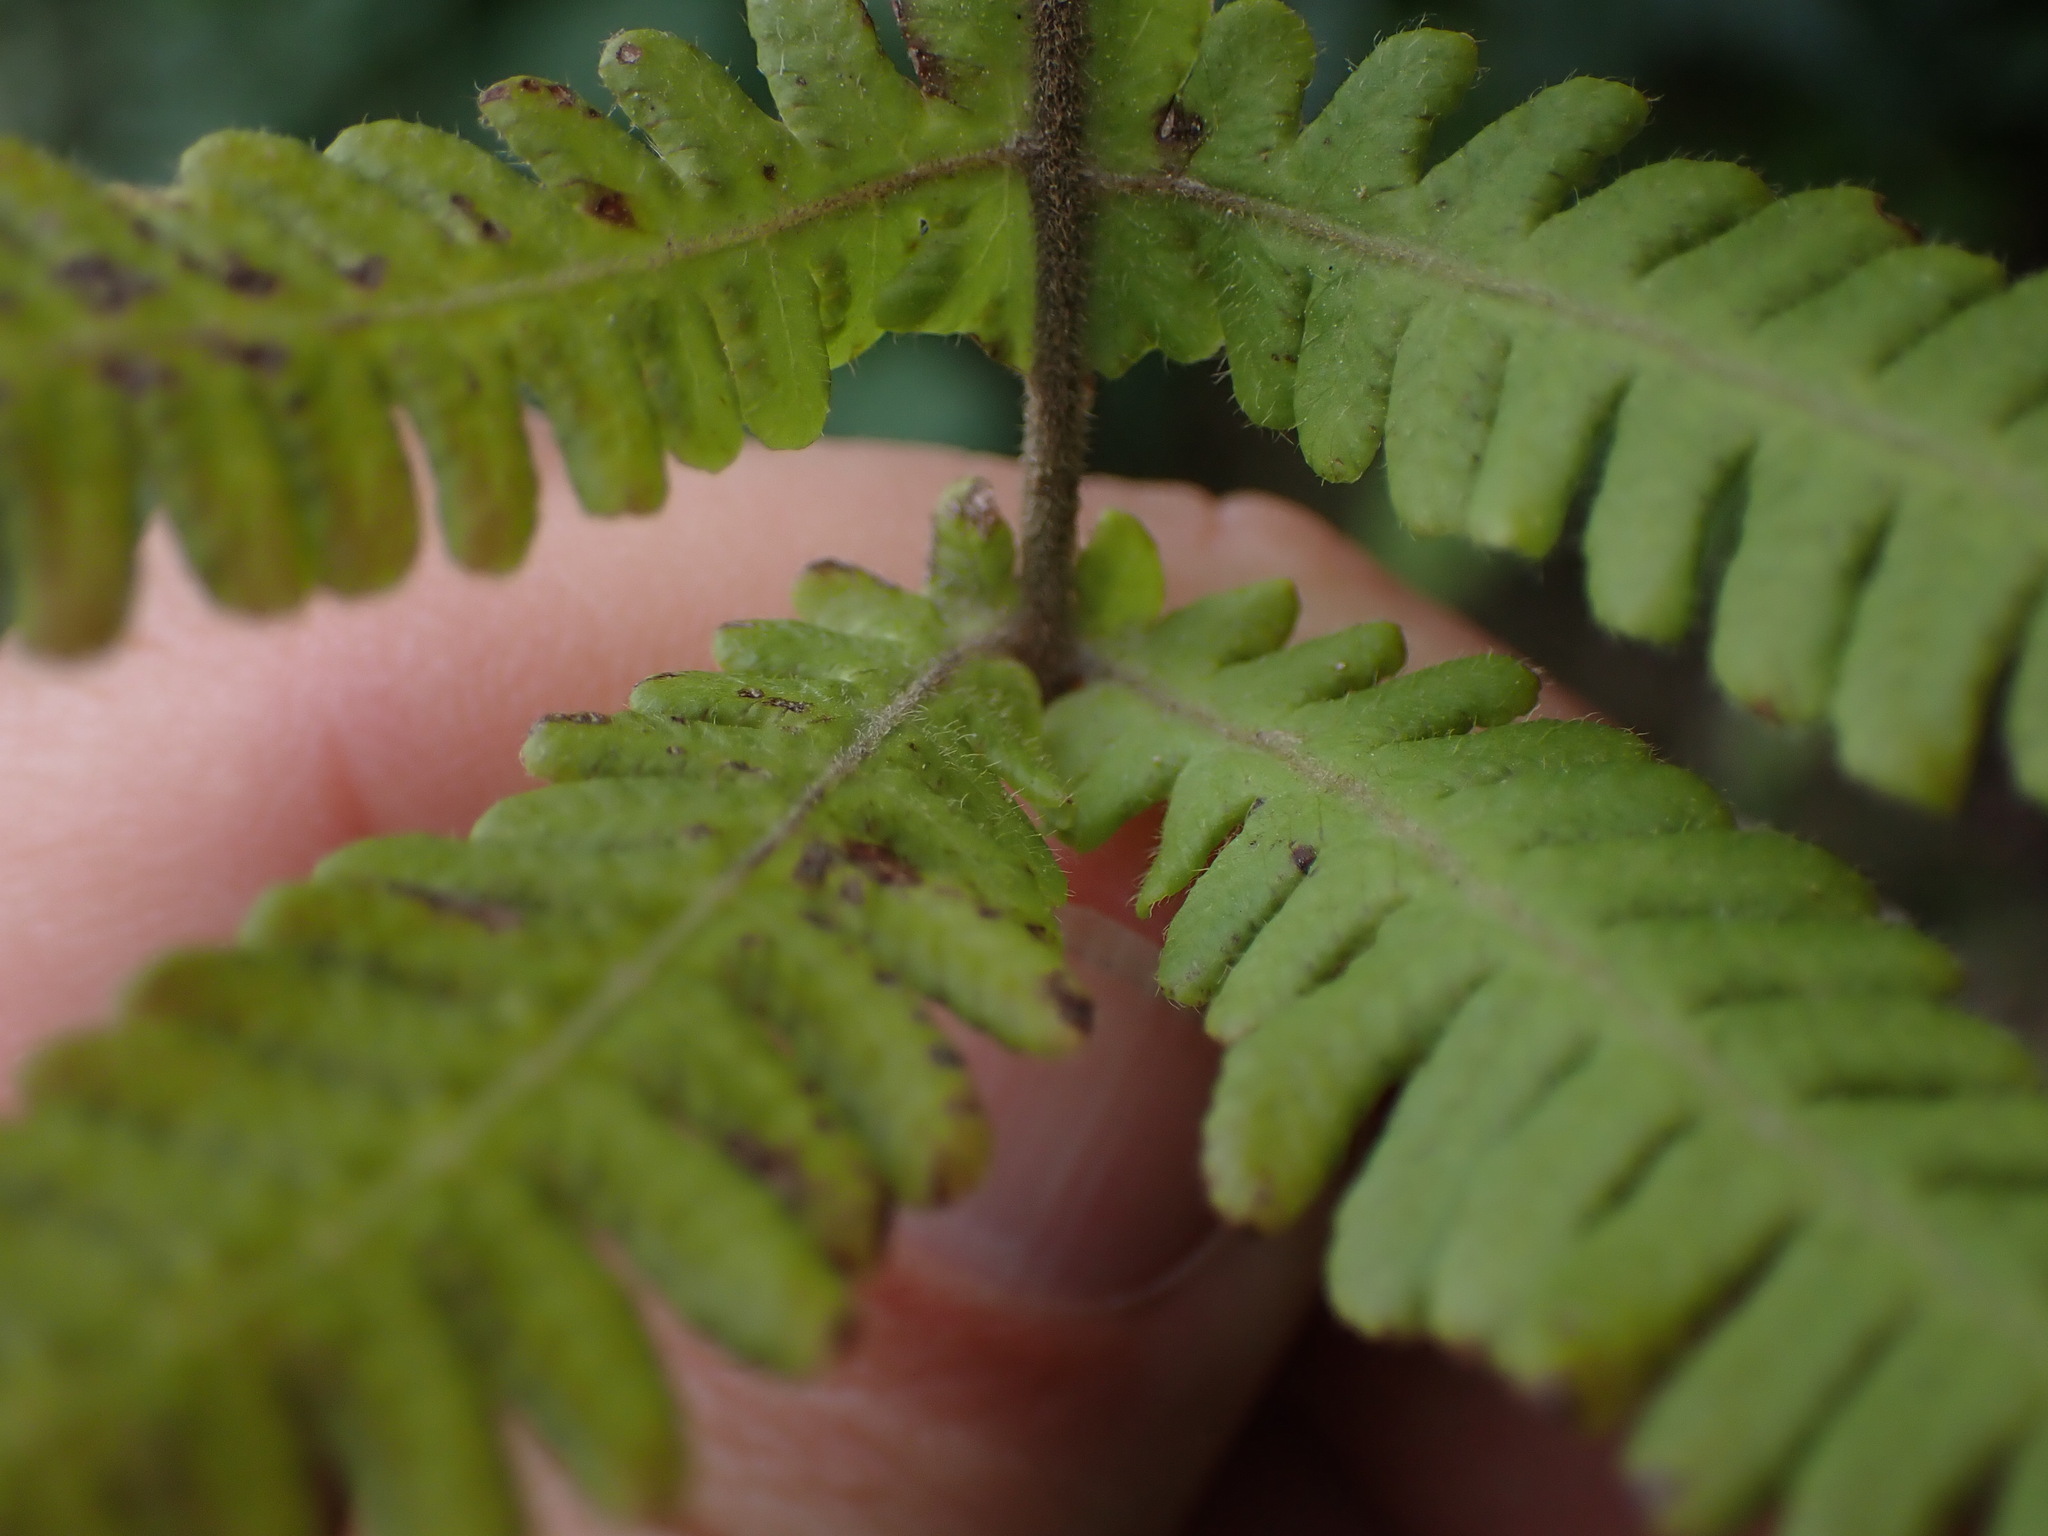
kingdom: Plantae
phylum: Tracheophyta
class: Polypodiopsida
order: Polypodiales
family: Thelypteridaceae
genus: Phegopteris
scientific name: Phegopteris connectilis
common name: Beech fern
